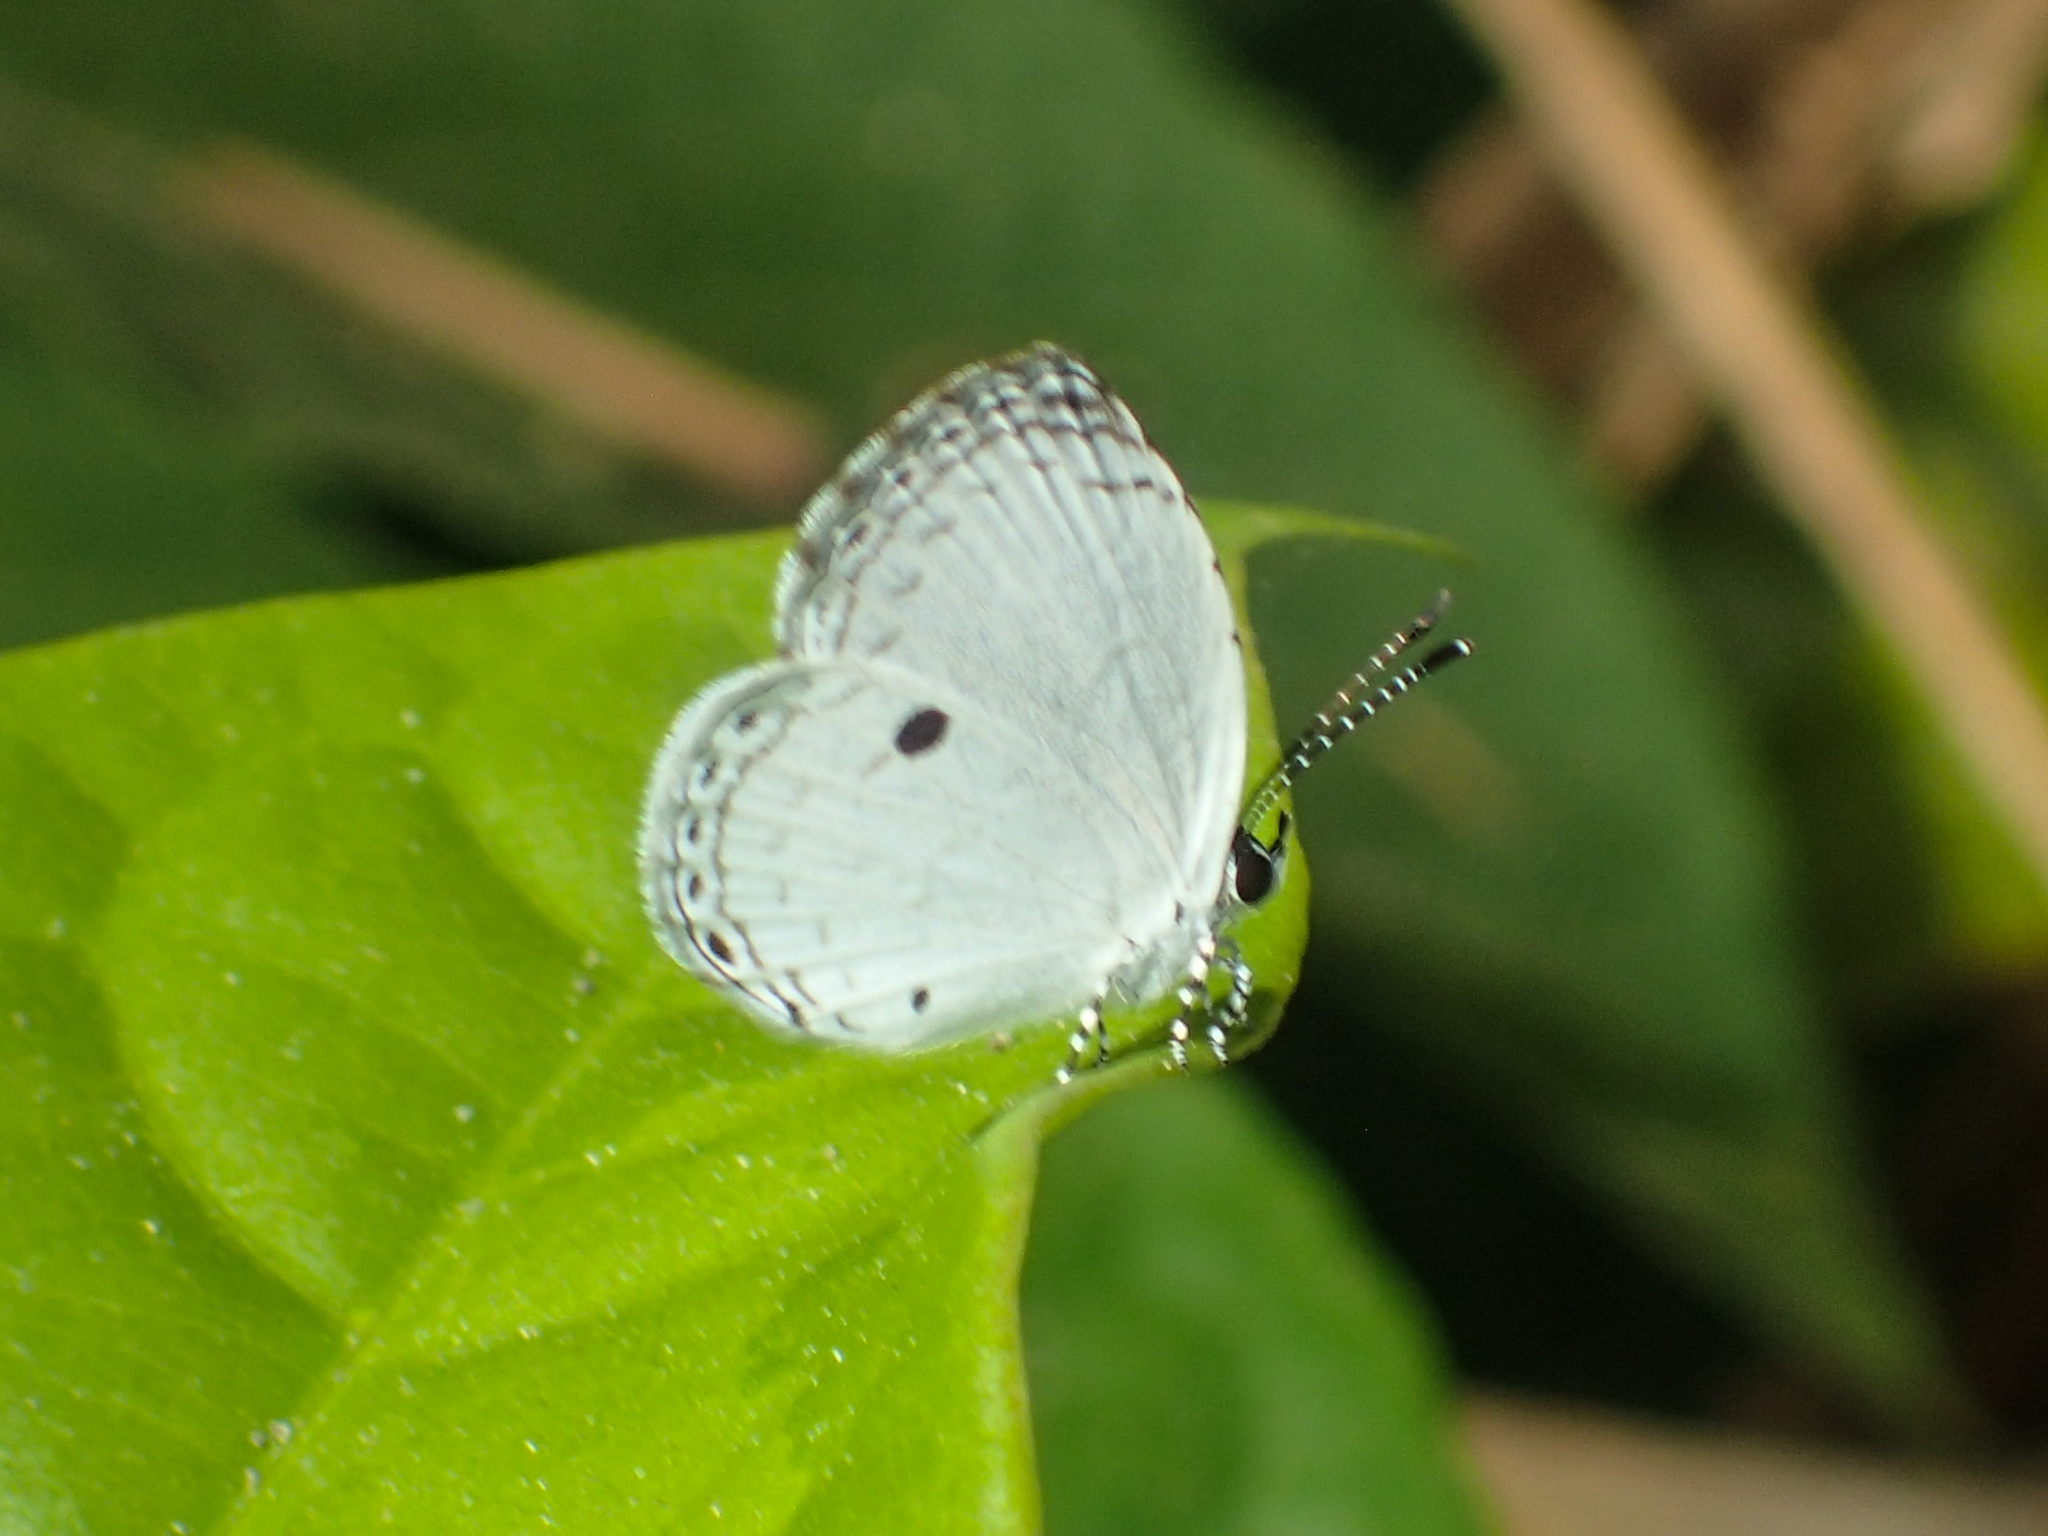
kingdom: Animalia
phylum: Arthropoda
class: Insecta
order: Lepidoptera
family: Lycaenidae
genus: Neopithecops
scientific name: Neopithecops zalmora
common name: Quaker
